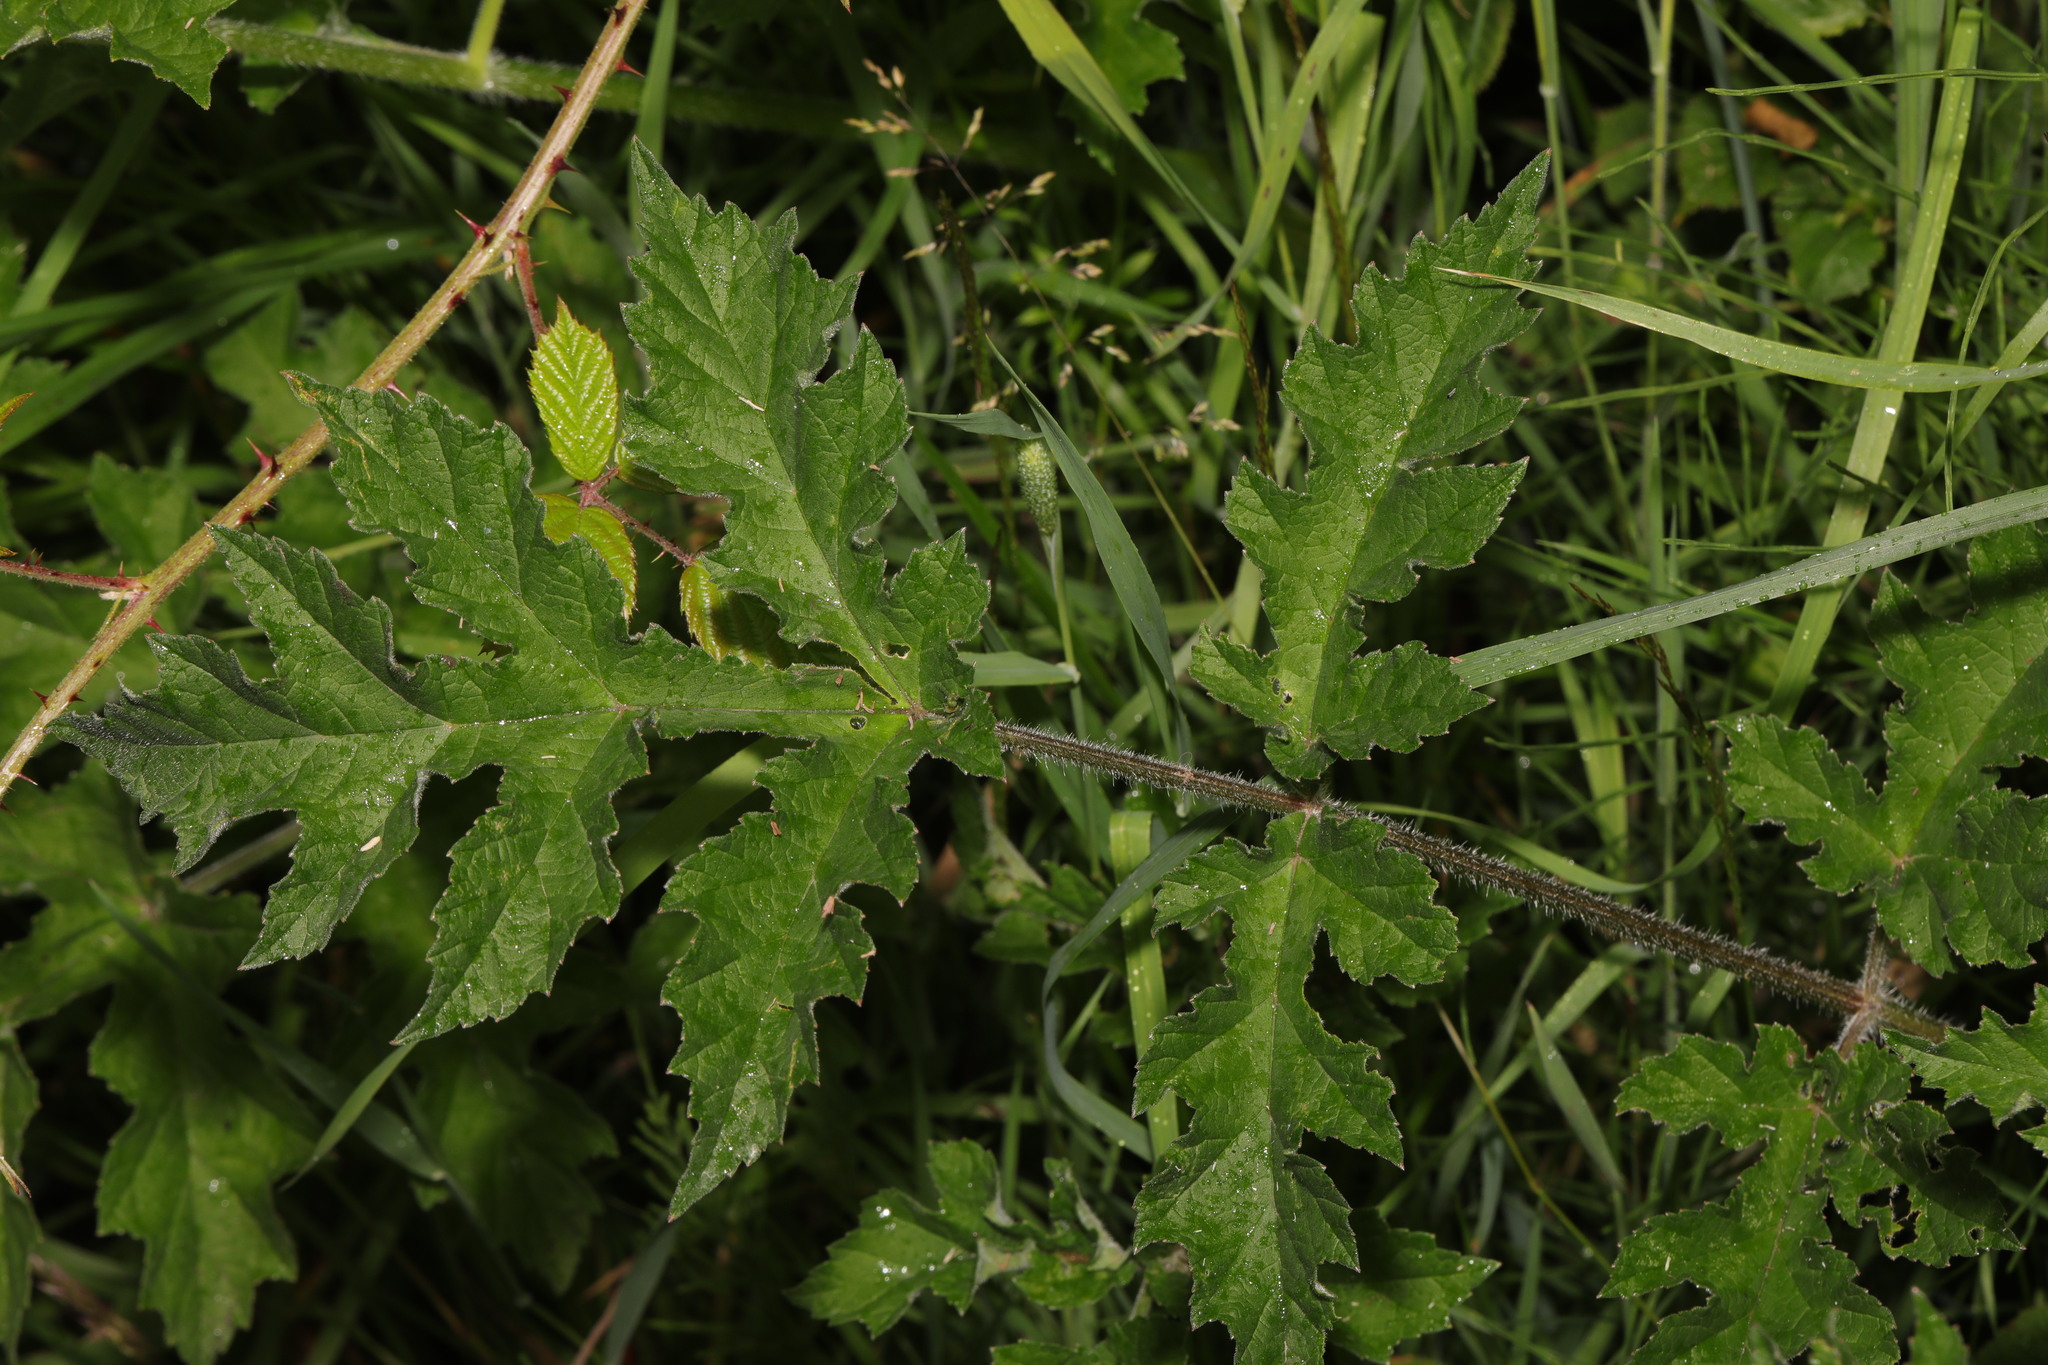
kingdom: Plantae
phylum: Tracheophyta
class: Magnoliopsida
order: Apiales
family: Apiaceae
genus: Heracleum
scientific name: Heracleum sphondylium
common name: Hogweed
